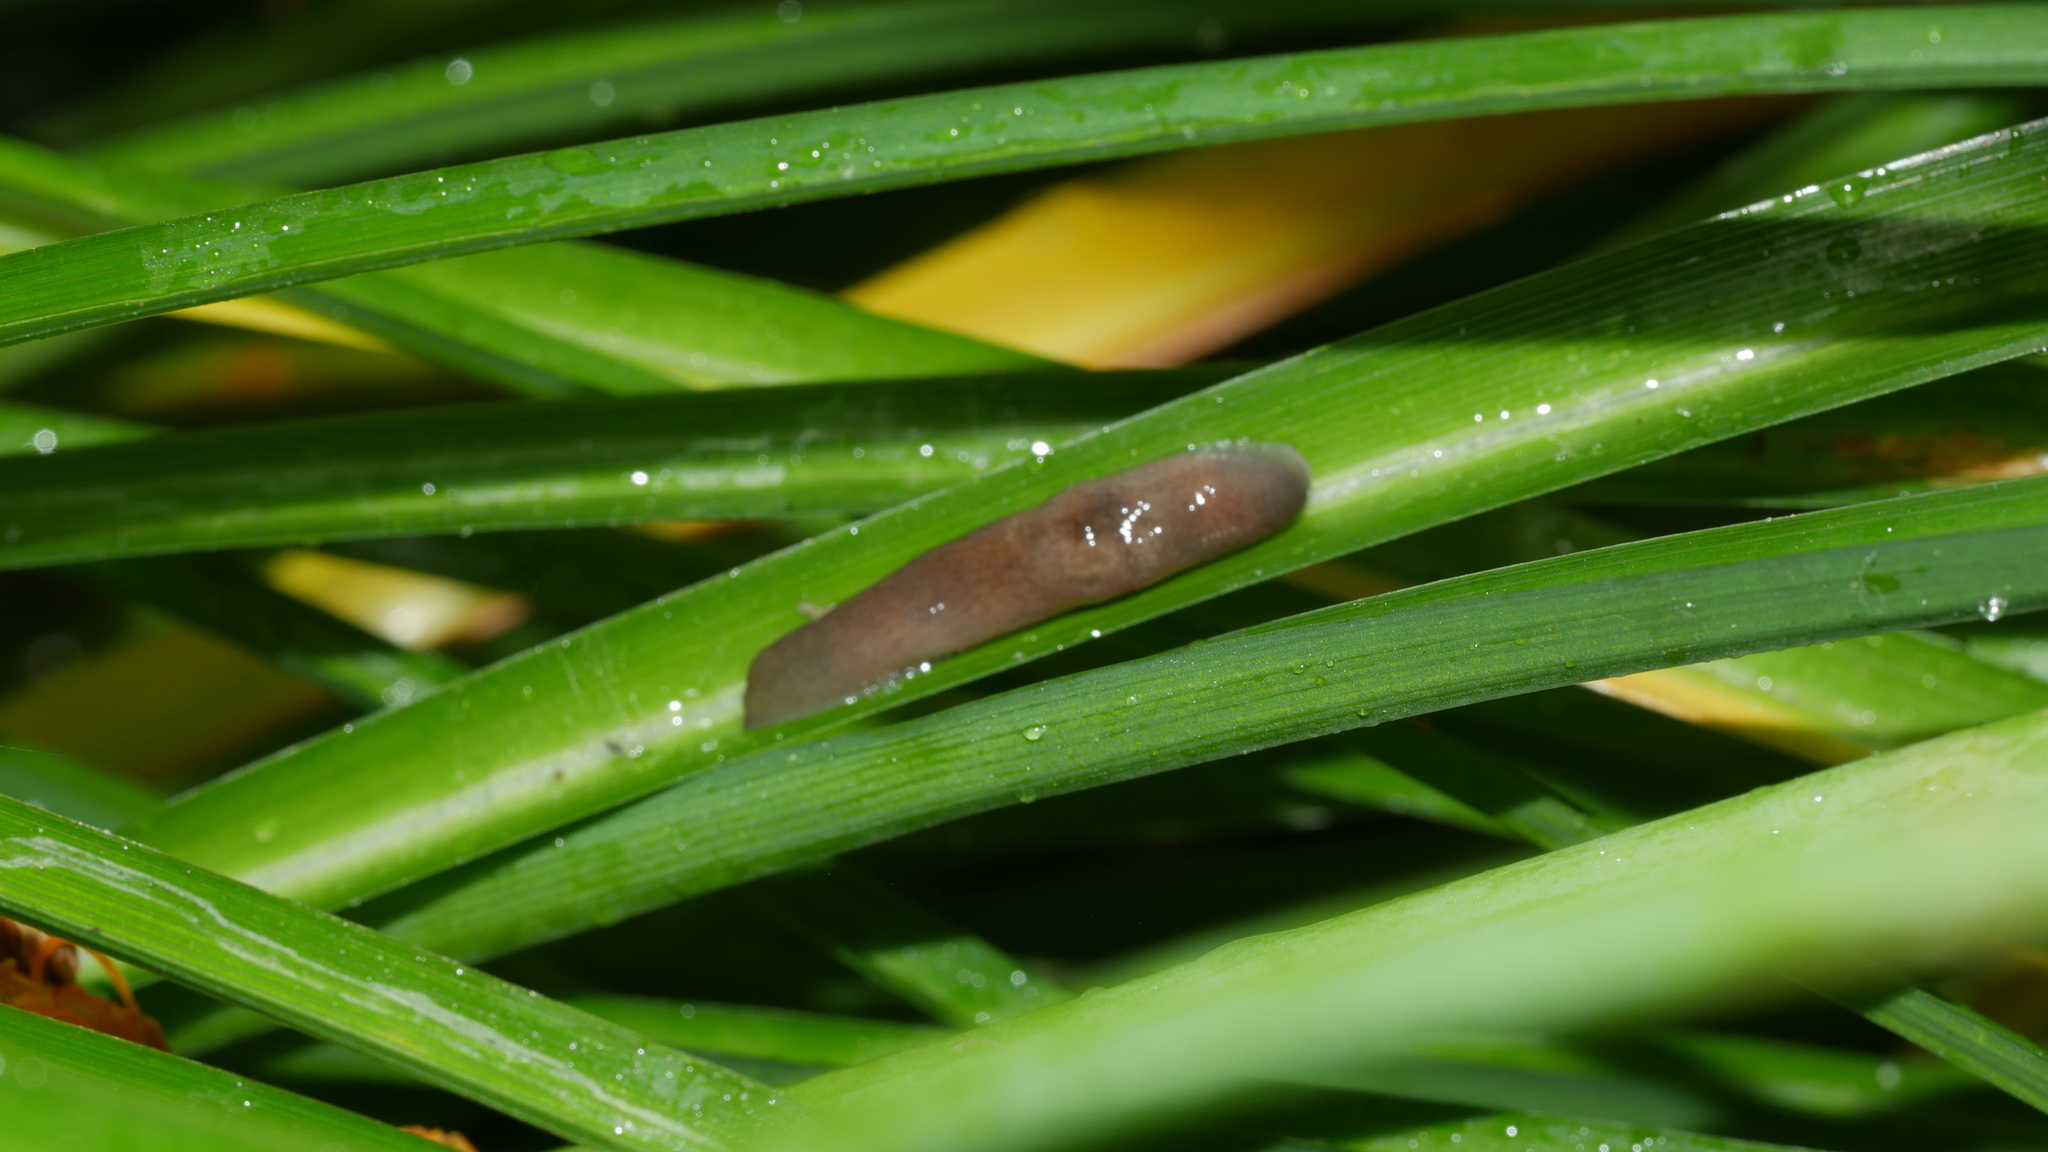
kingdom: Animalia
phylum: Mollusca
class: Gastropoda
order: Stylommatophora
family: Agriolimacidae
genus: Deroceras
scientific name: Deroceras laeve
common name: Marsh slug
